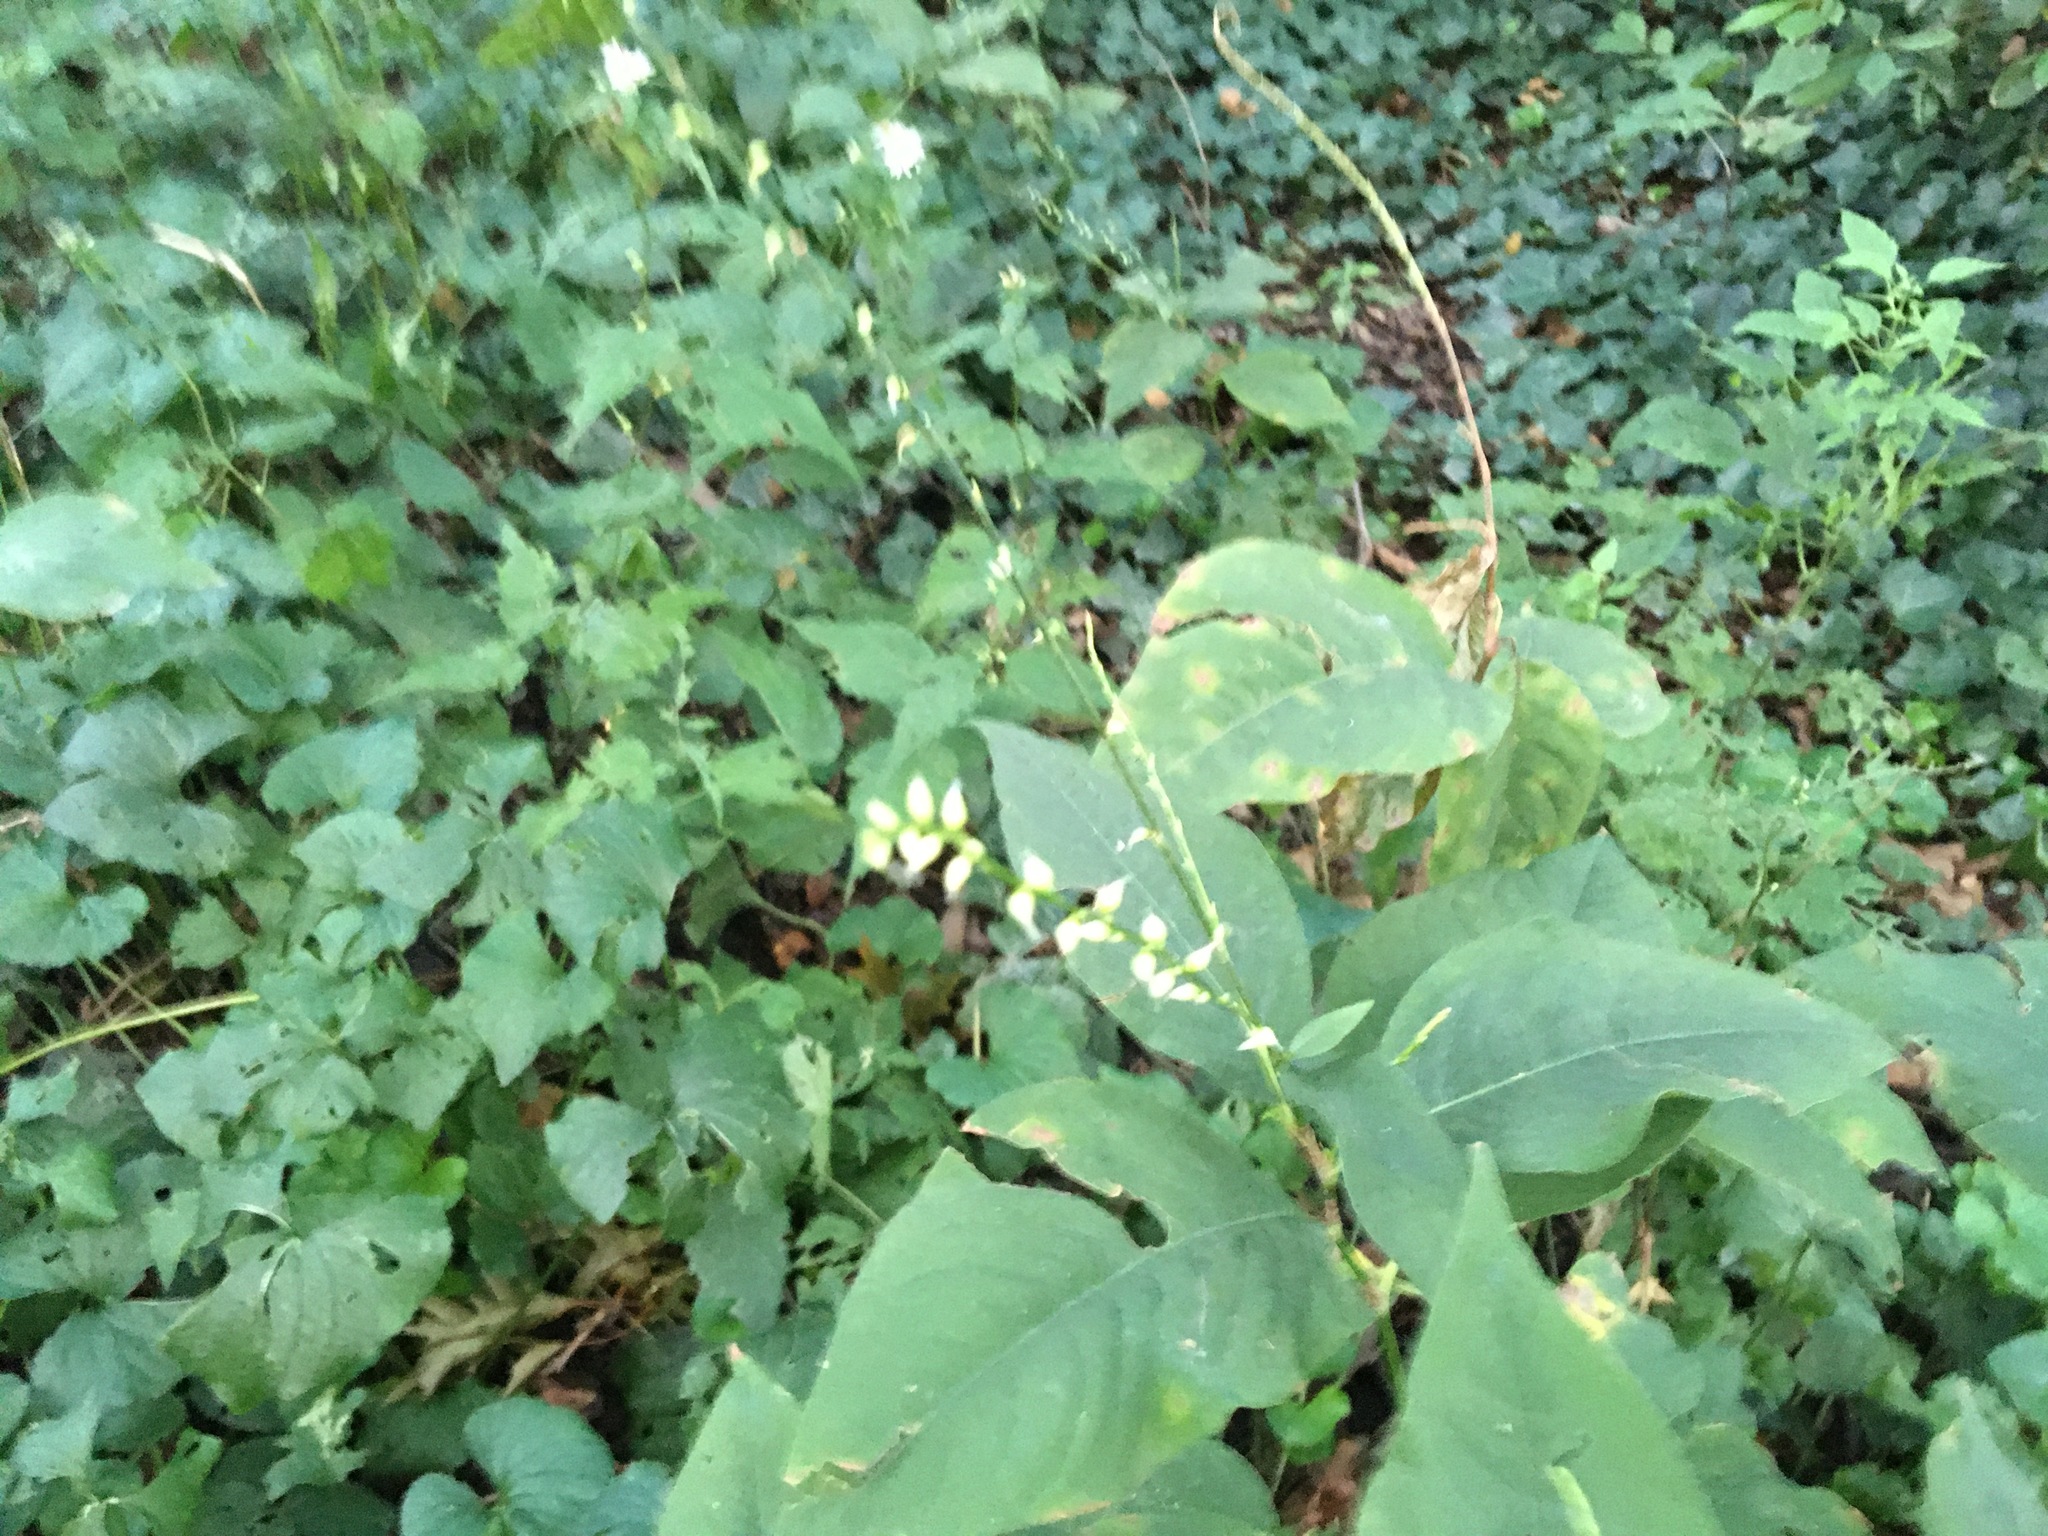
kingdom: Plantae
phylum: Tracheophyta
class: Magnoliopsida
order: Caryophyllales
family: Polygonaceae
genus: Persicaria
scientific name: Persicaria virginiana
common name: Jumpseed
